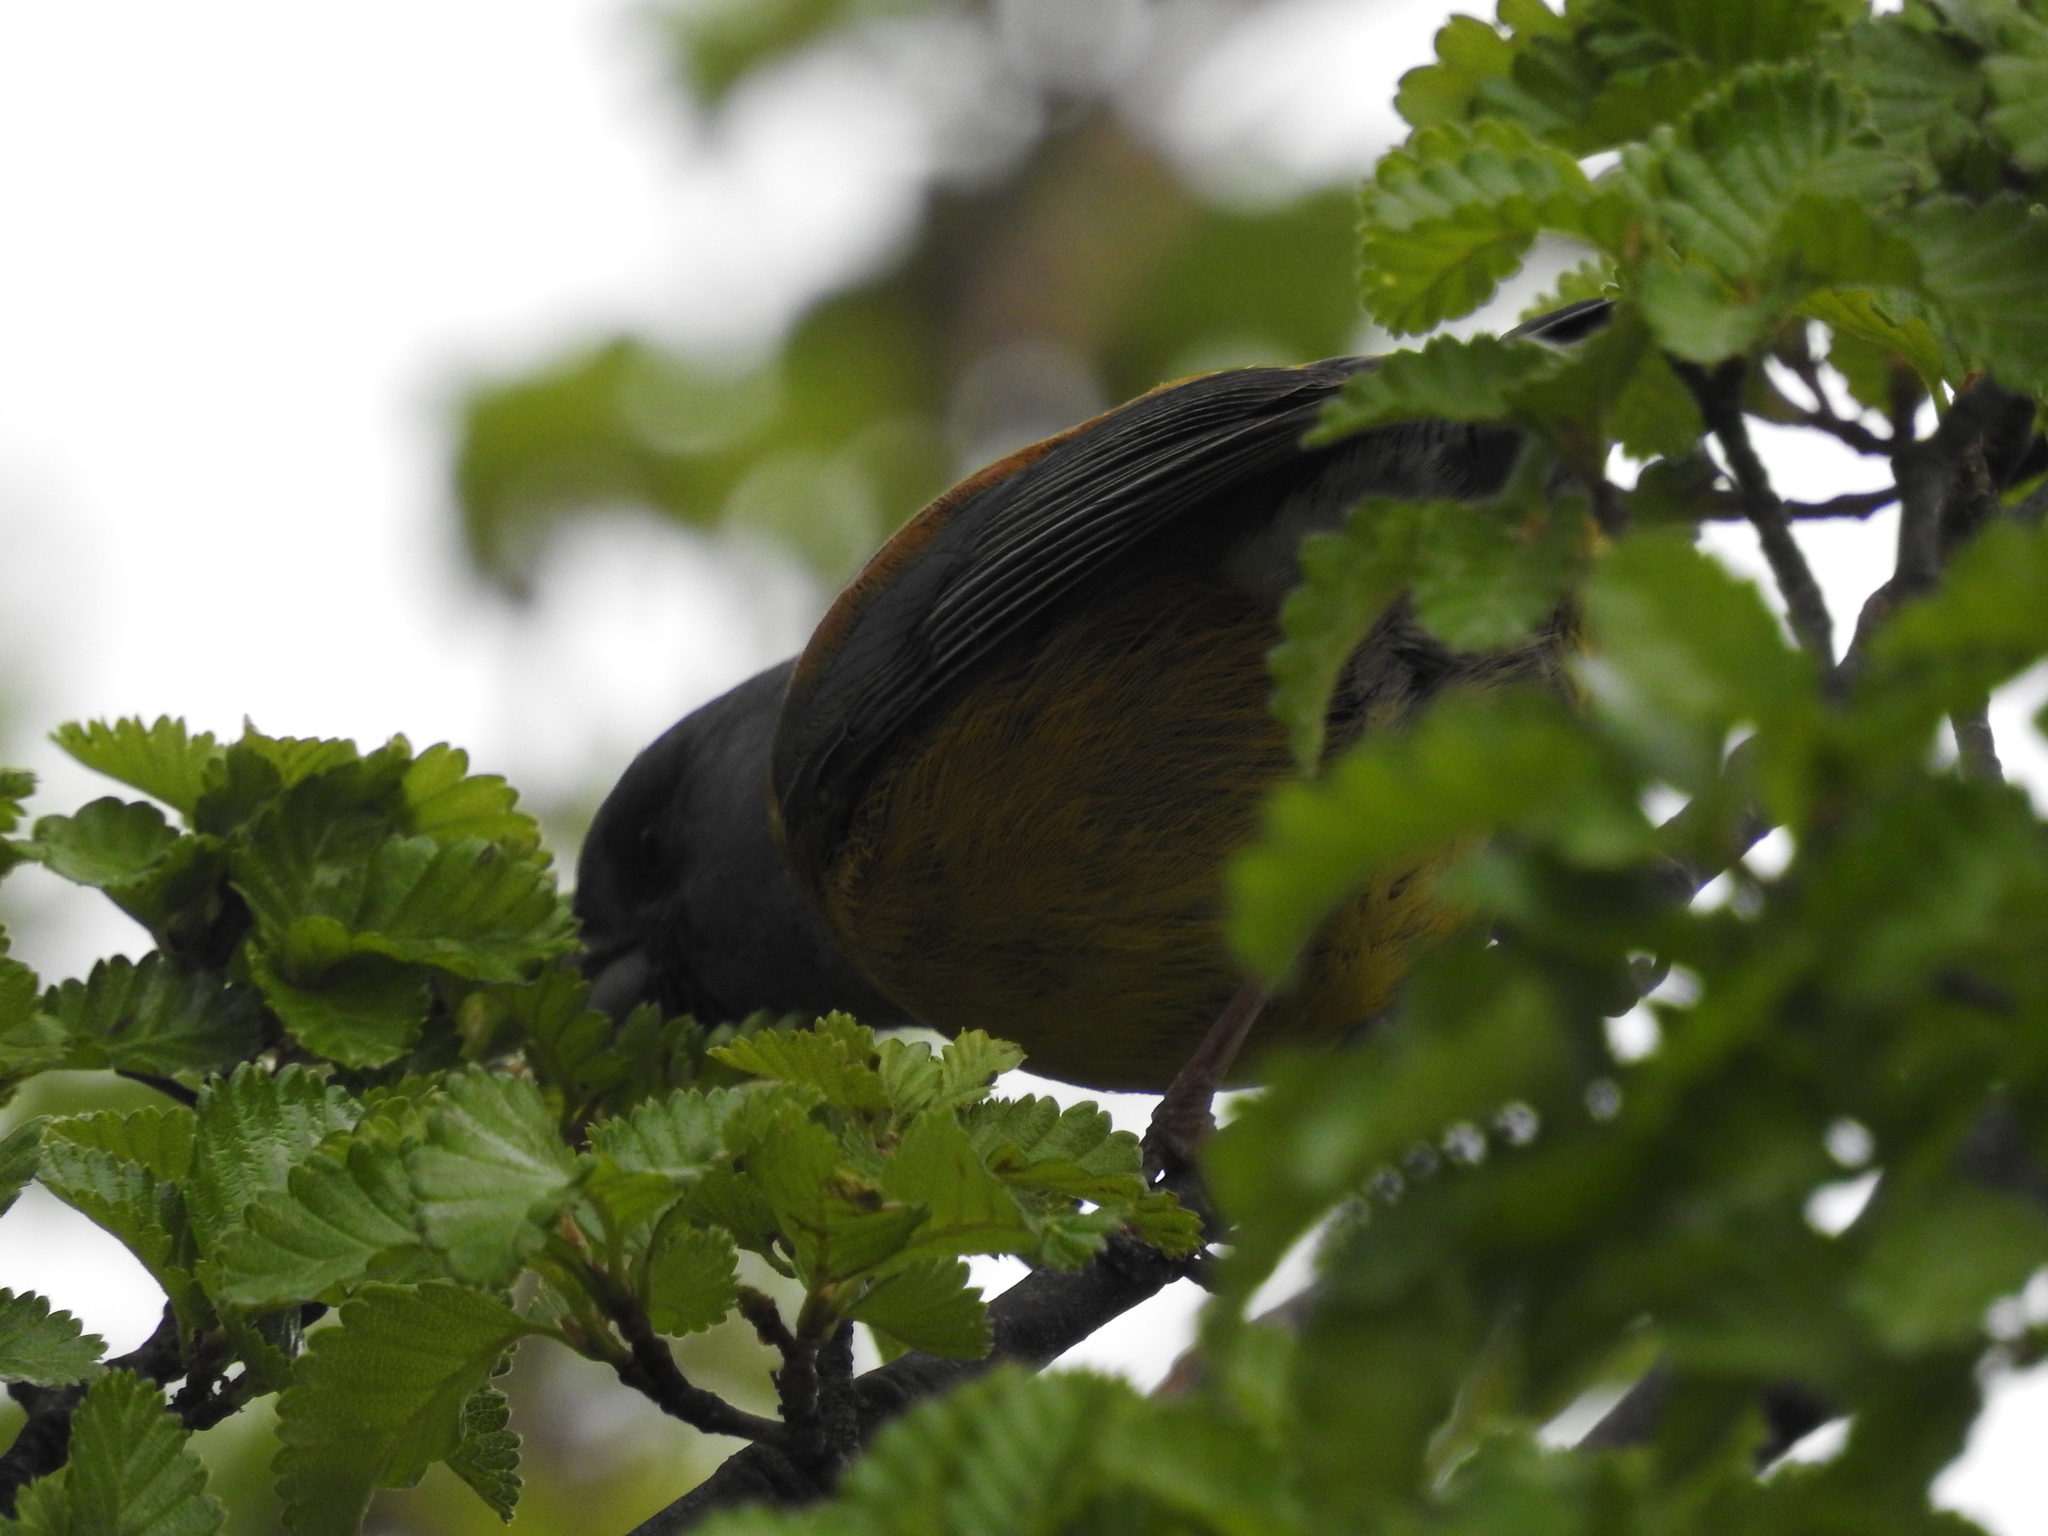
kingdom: Animalia
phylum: Chordata
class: Aves
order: Passeriformes
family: Thraupidae
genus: Phrygilus
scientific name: Phrygilus patagonicus
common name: Patagonian sierra finch
